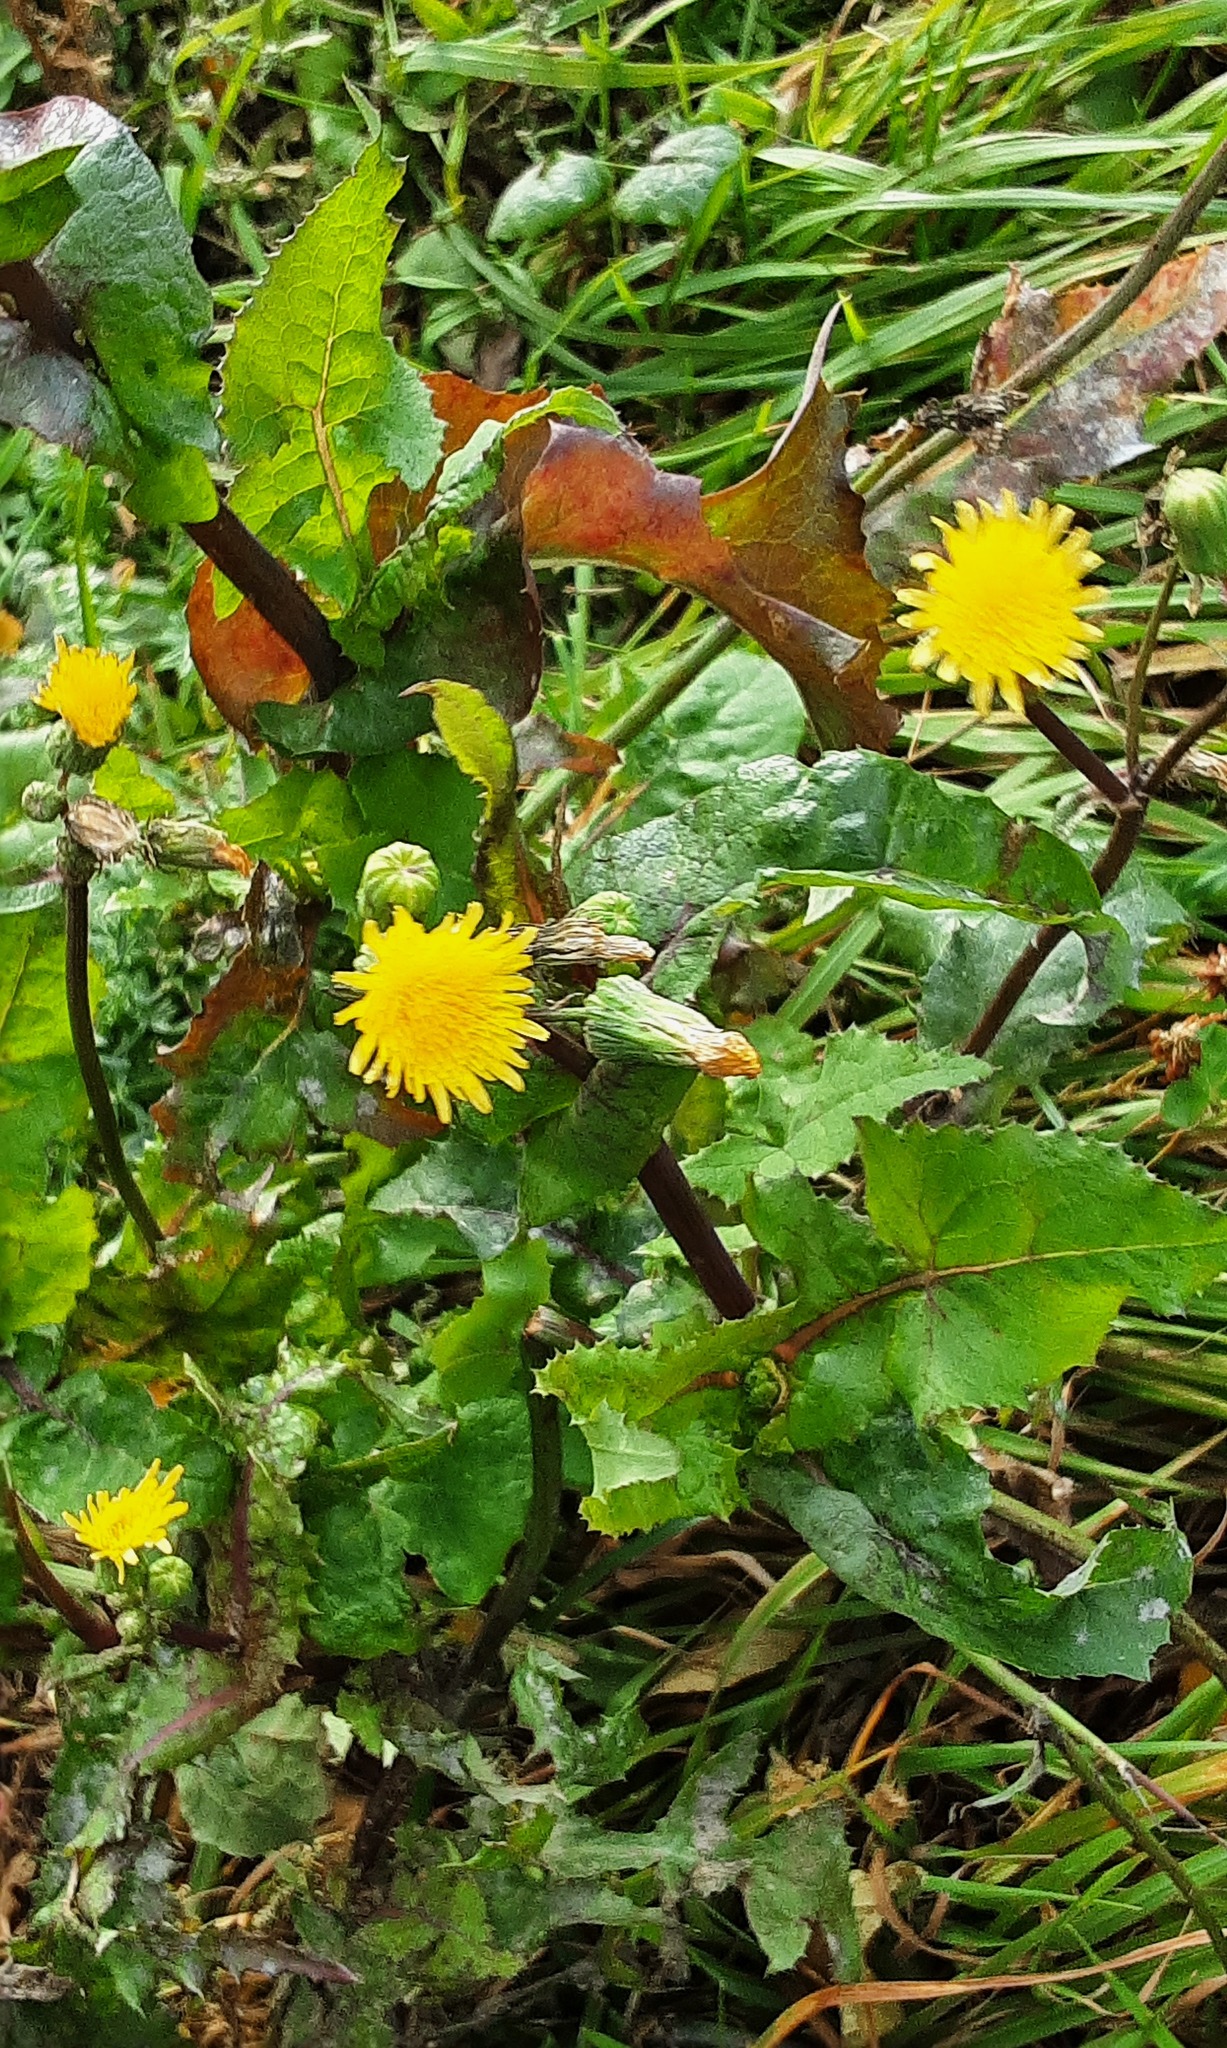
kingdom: Plantae
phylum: Tracheophyta
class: Magnoliopsida
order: Asterales
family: Asteraceae
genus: Sonchus
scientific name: Sonchus oleraceus
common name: Common sowthistle
